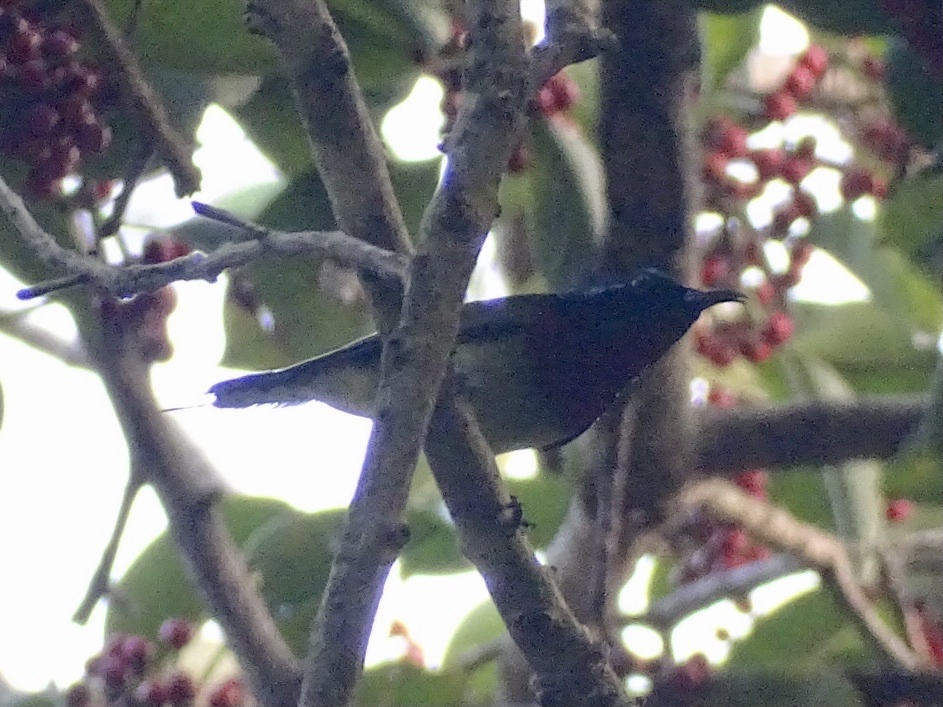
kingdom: Animalia
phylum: Chordata
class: Aves
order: Passeriformes
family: Nectariniidae
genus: Aethopyga
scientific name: Aethopyga christinae
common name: Fork-tailed sunbird
